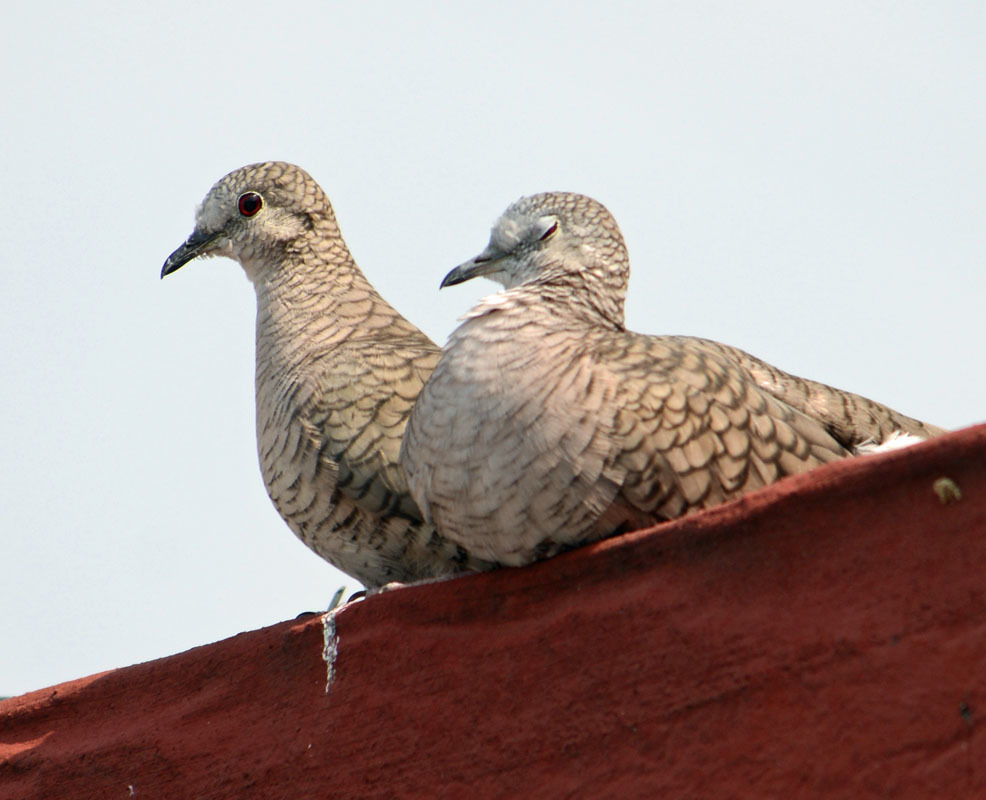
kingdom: Animalia
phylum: Chordata
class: Aves
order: Columbiformes
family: Columbidae
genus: Columbina
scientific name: Columbina inca
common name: Inca dove
